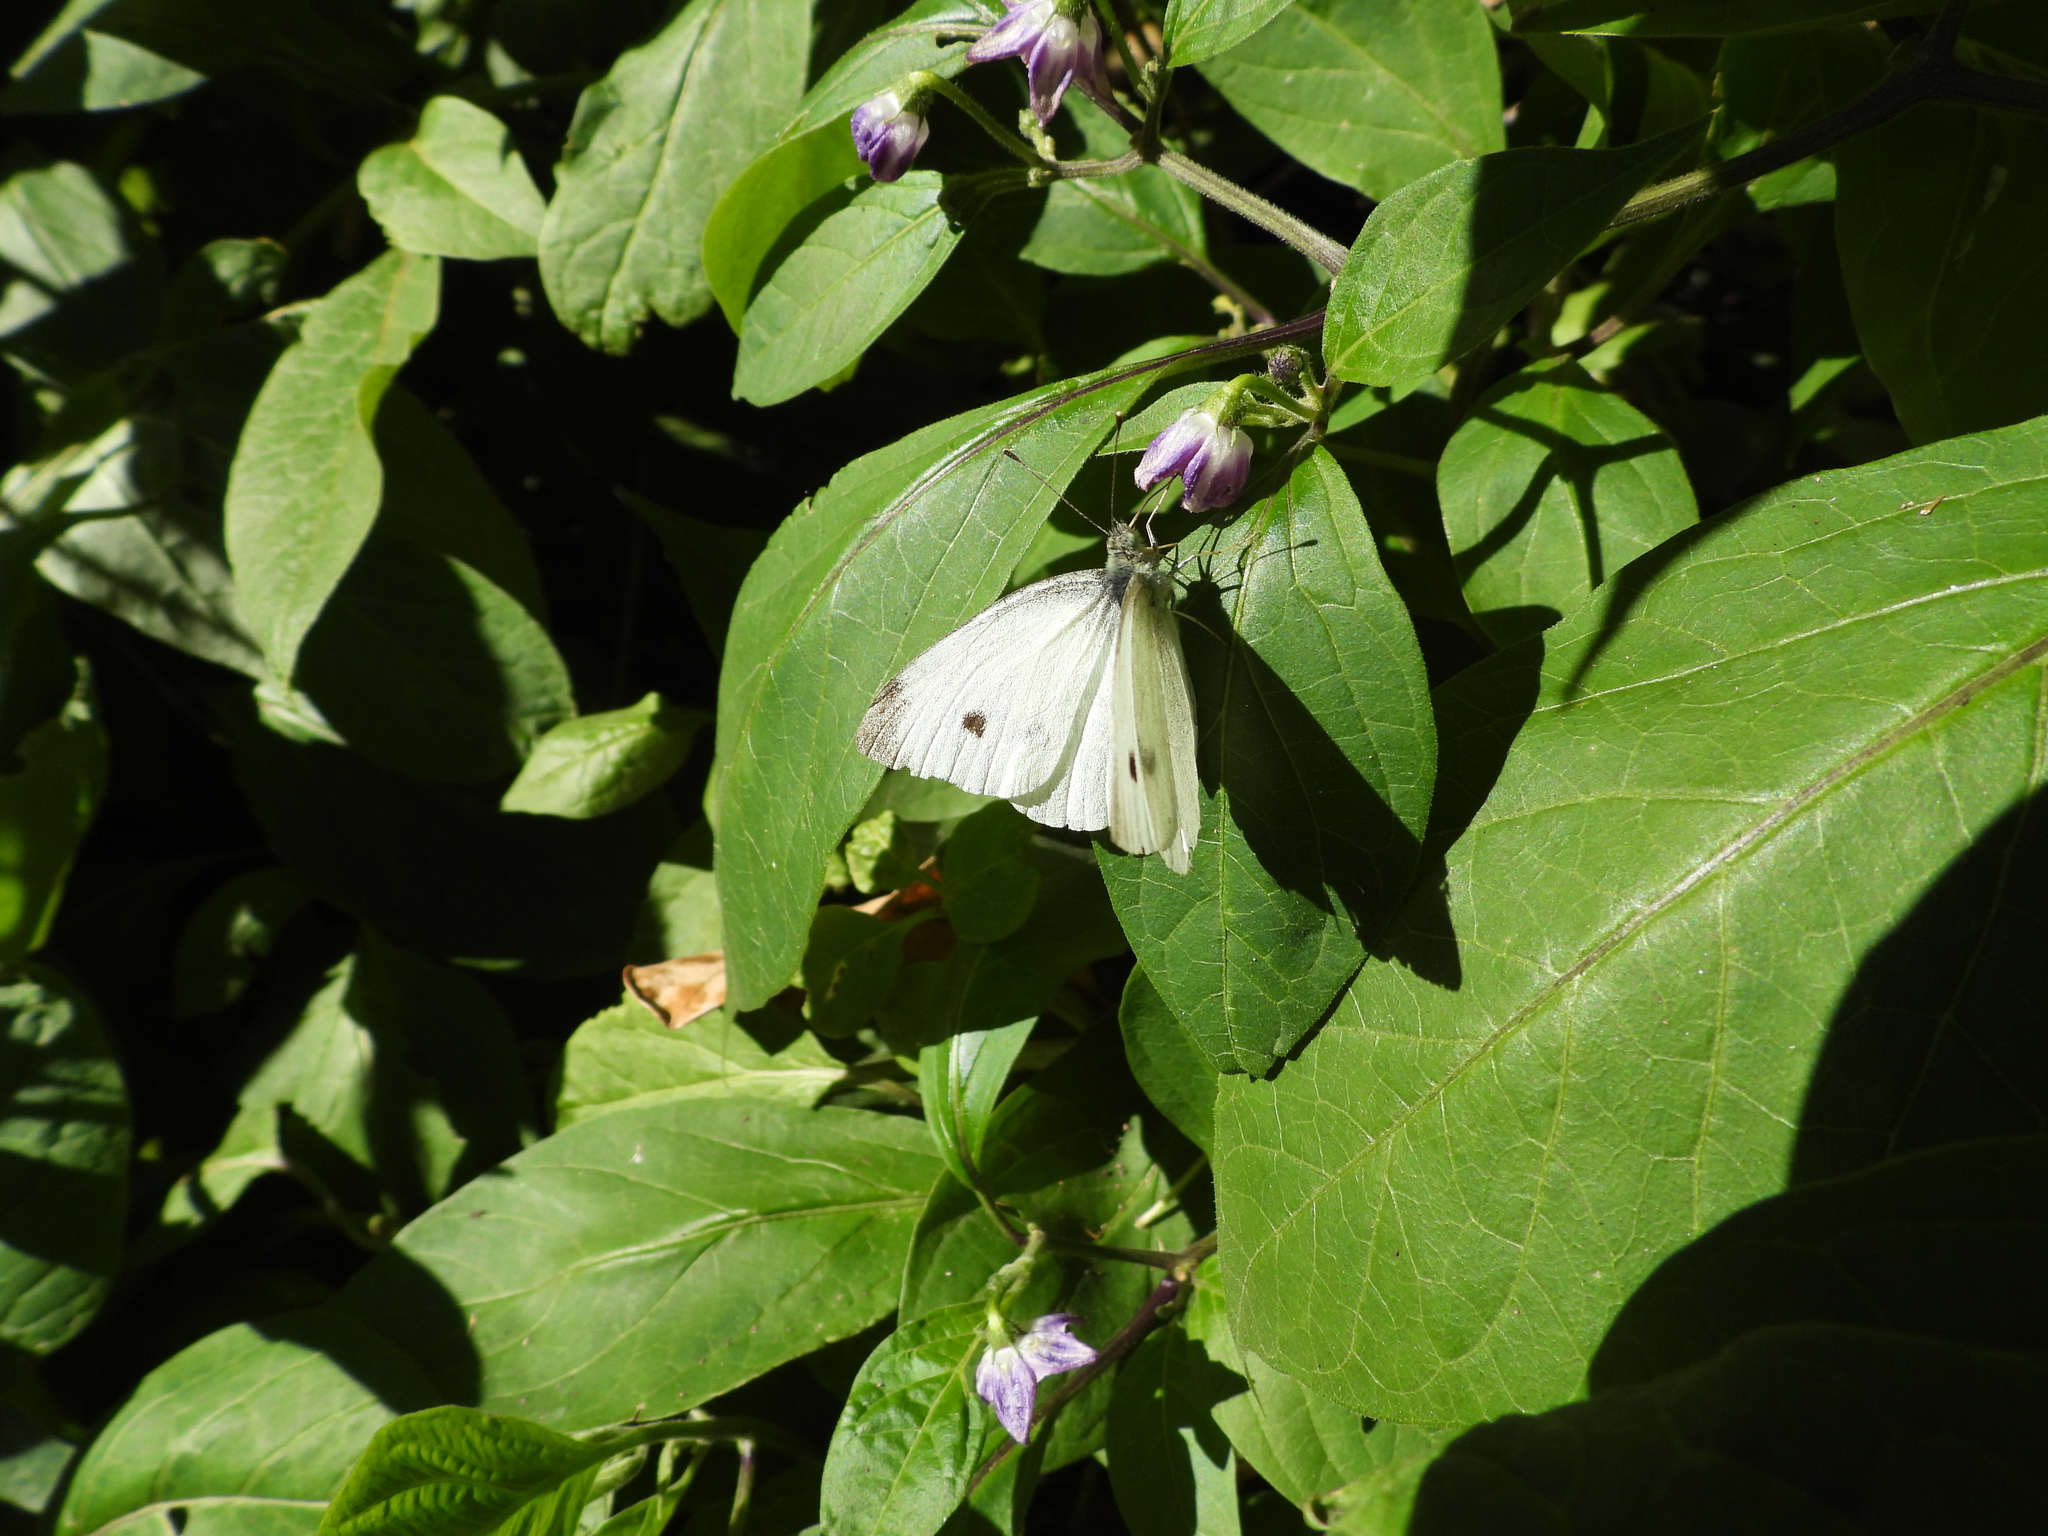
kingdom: Animalia
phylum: Arthropoda
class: Insecta
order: Lepidoptera
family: Pieridae
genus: Pieris
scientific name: Pieris rapae
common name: Small white
